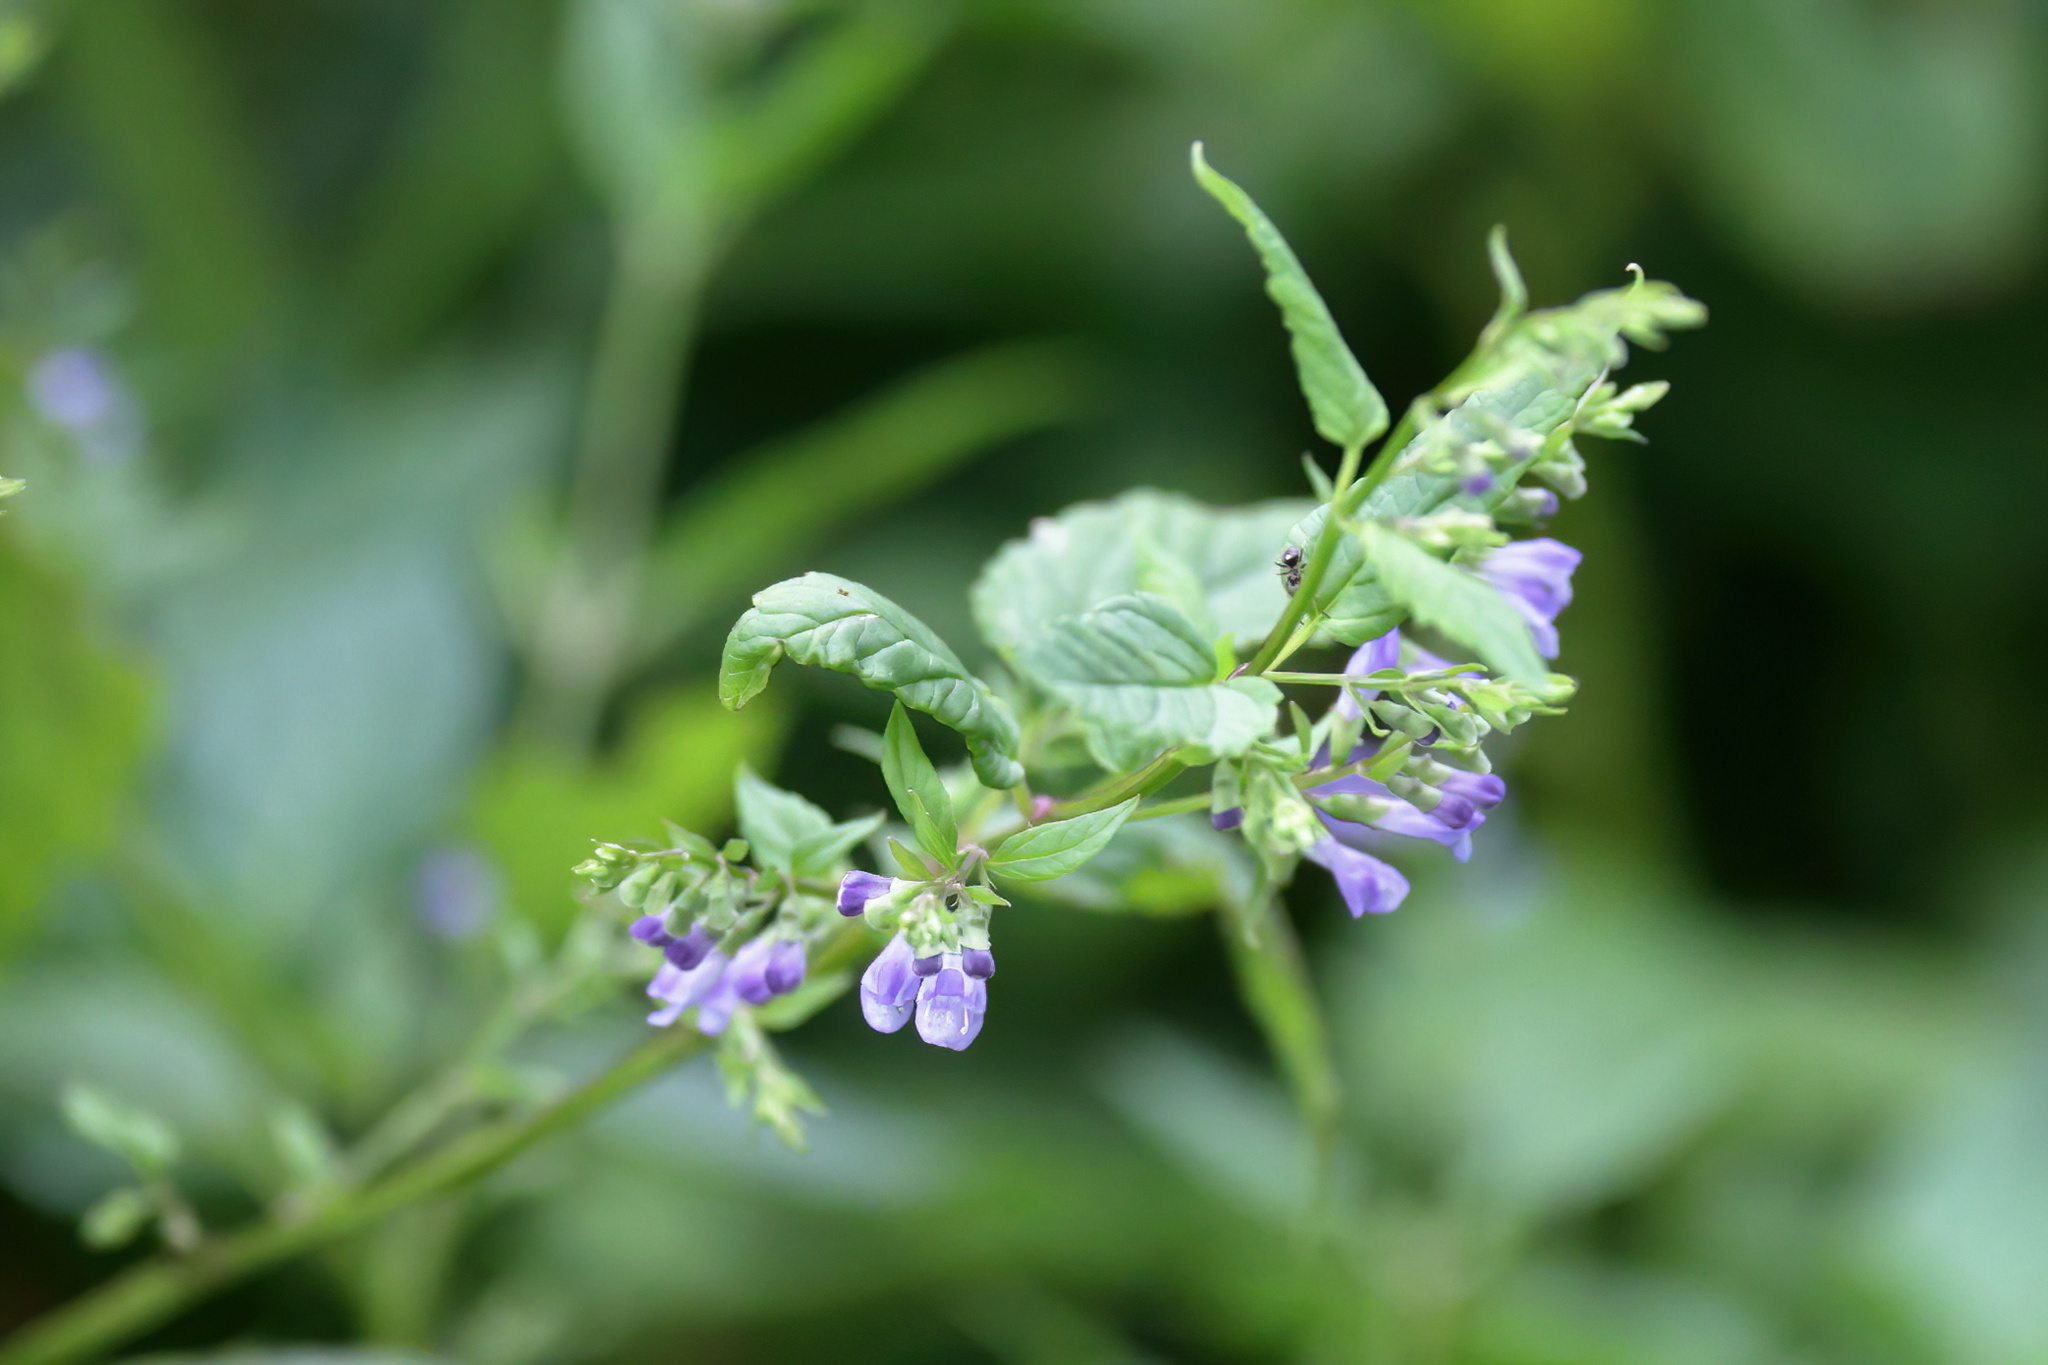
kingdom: Plantae
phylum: Tracheophyta
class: Magnoliopsida
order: Lamiales
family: Lamiaceae
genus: Scutellaria
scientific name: Scutellaria lateriflora
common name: Blue skullcap
